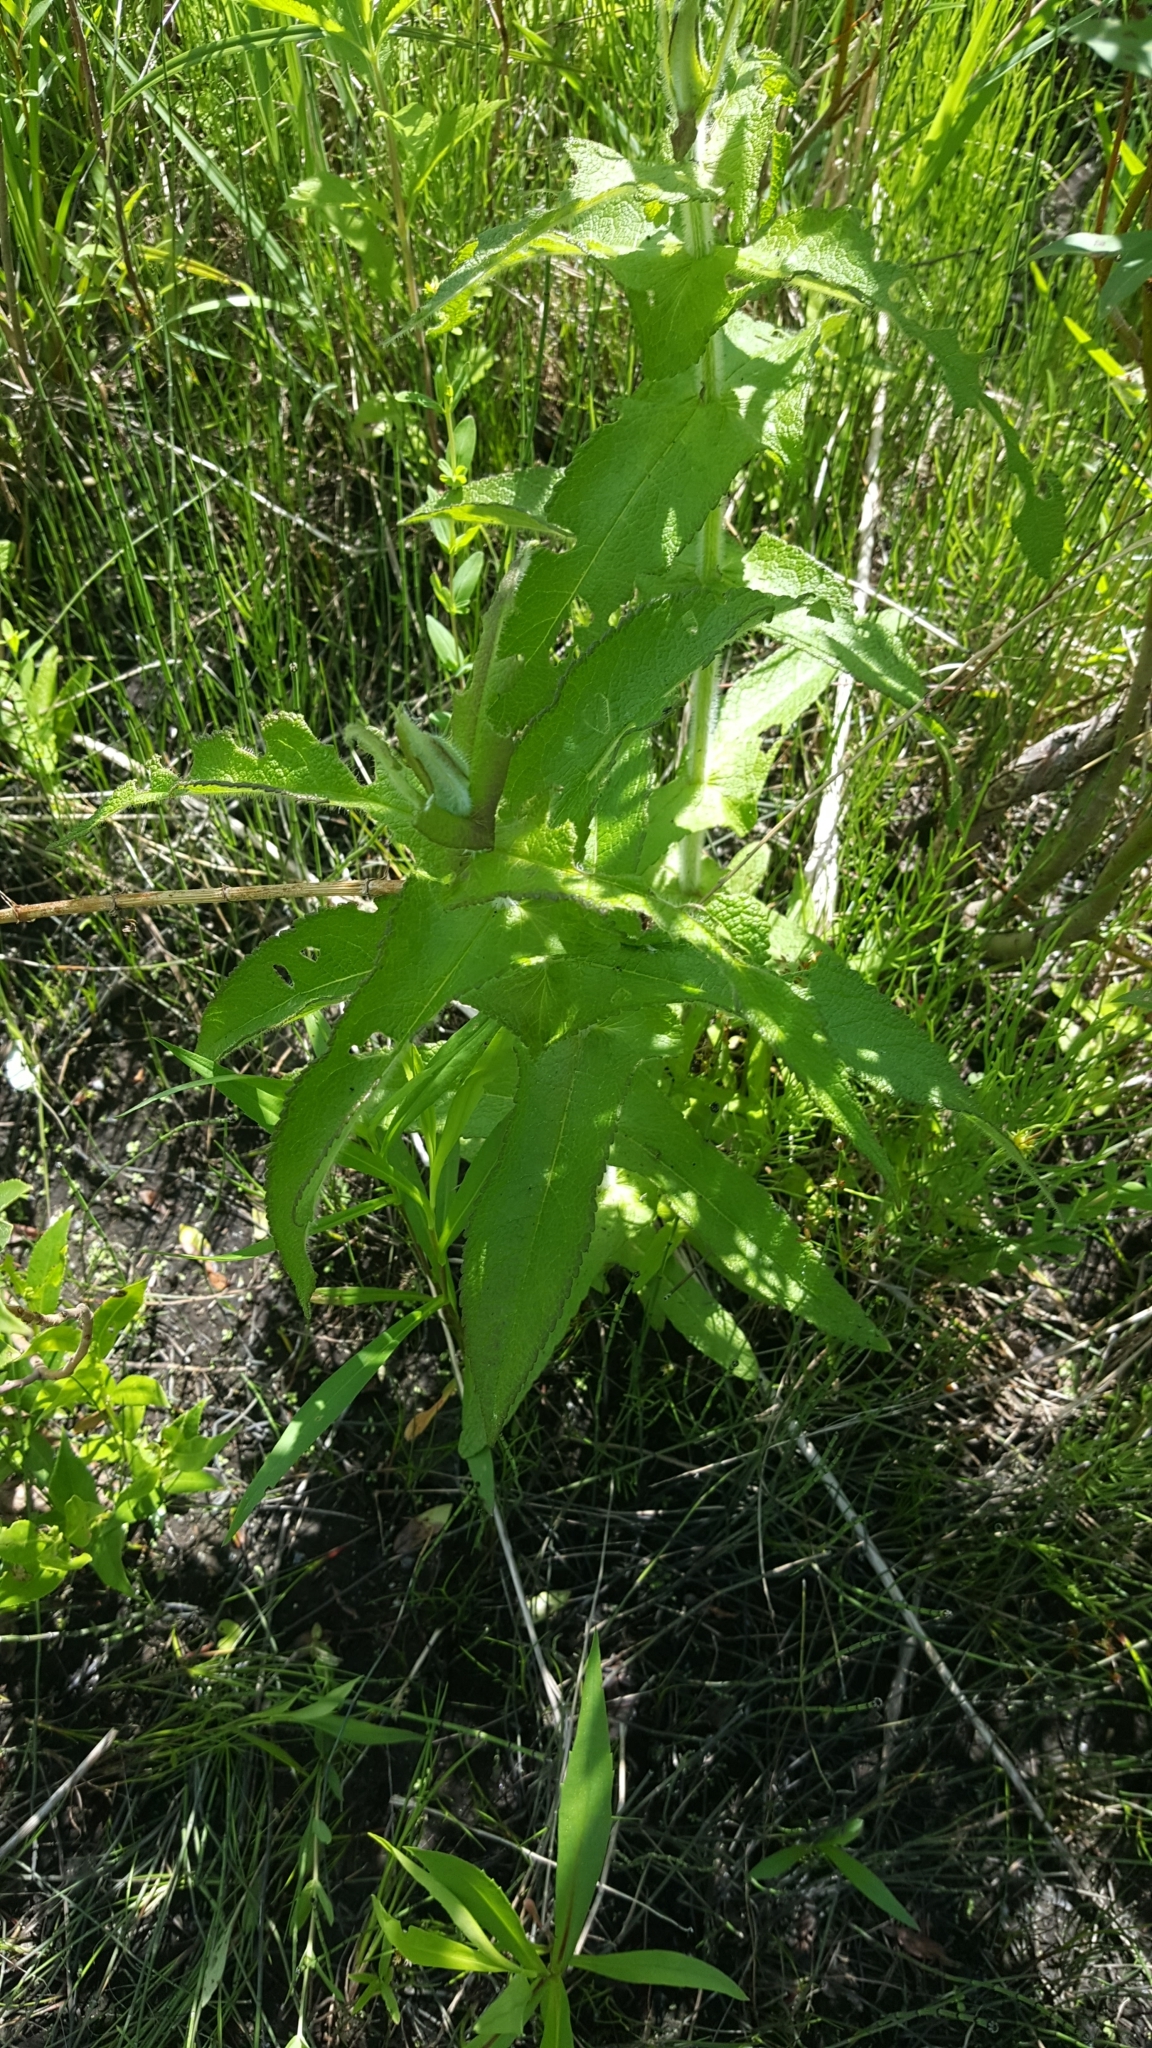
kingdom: Plantae
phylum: Tracheophyta
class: Magnoliopsida
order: Asterales
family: Asteraceae
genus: Eupatorium
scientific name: Eupatorium perfoliatum
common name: Boneset
